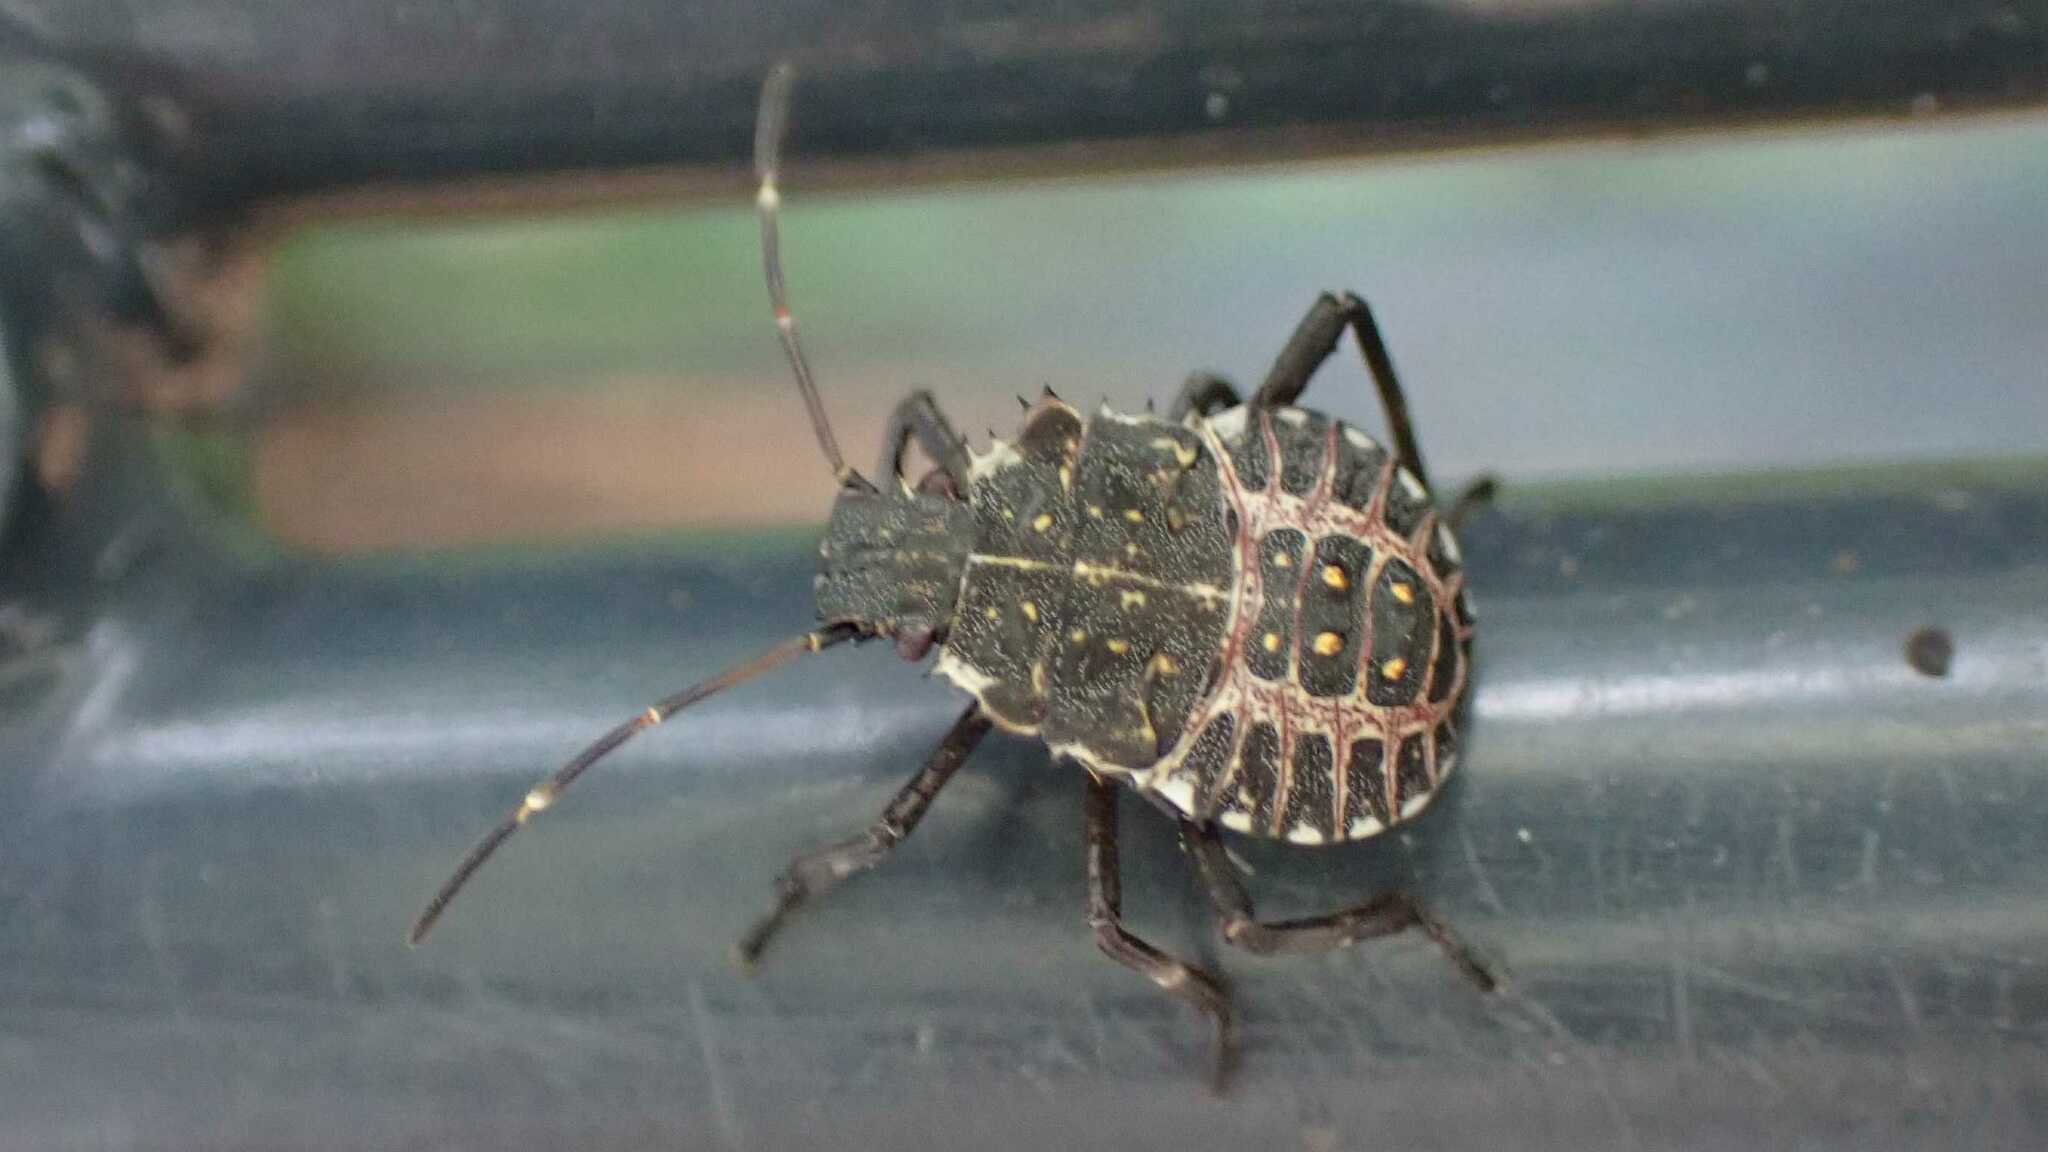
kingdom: Animalia
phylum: Arthropoda
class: Insecta
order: Hemiptera
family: Pentatomidae
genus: Halyomorpha
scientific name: Halyomorpha halys
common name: Brown marmorated stink bug
